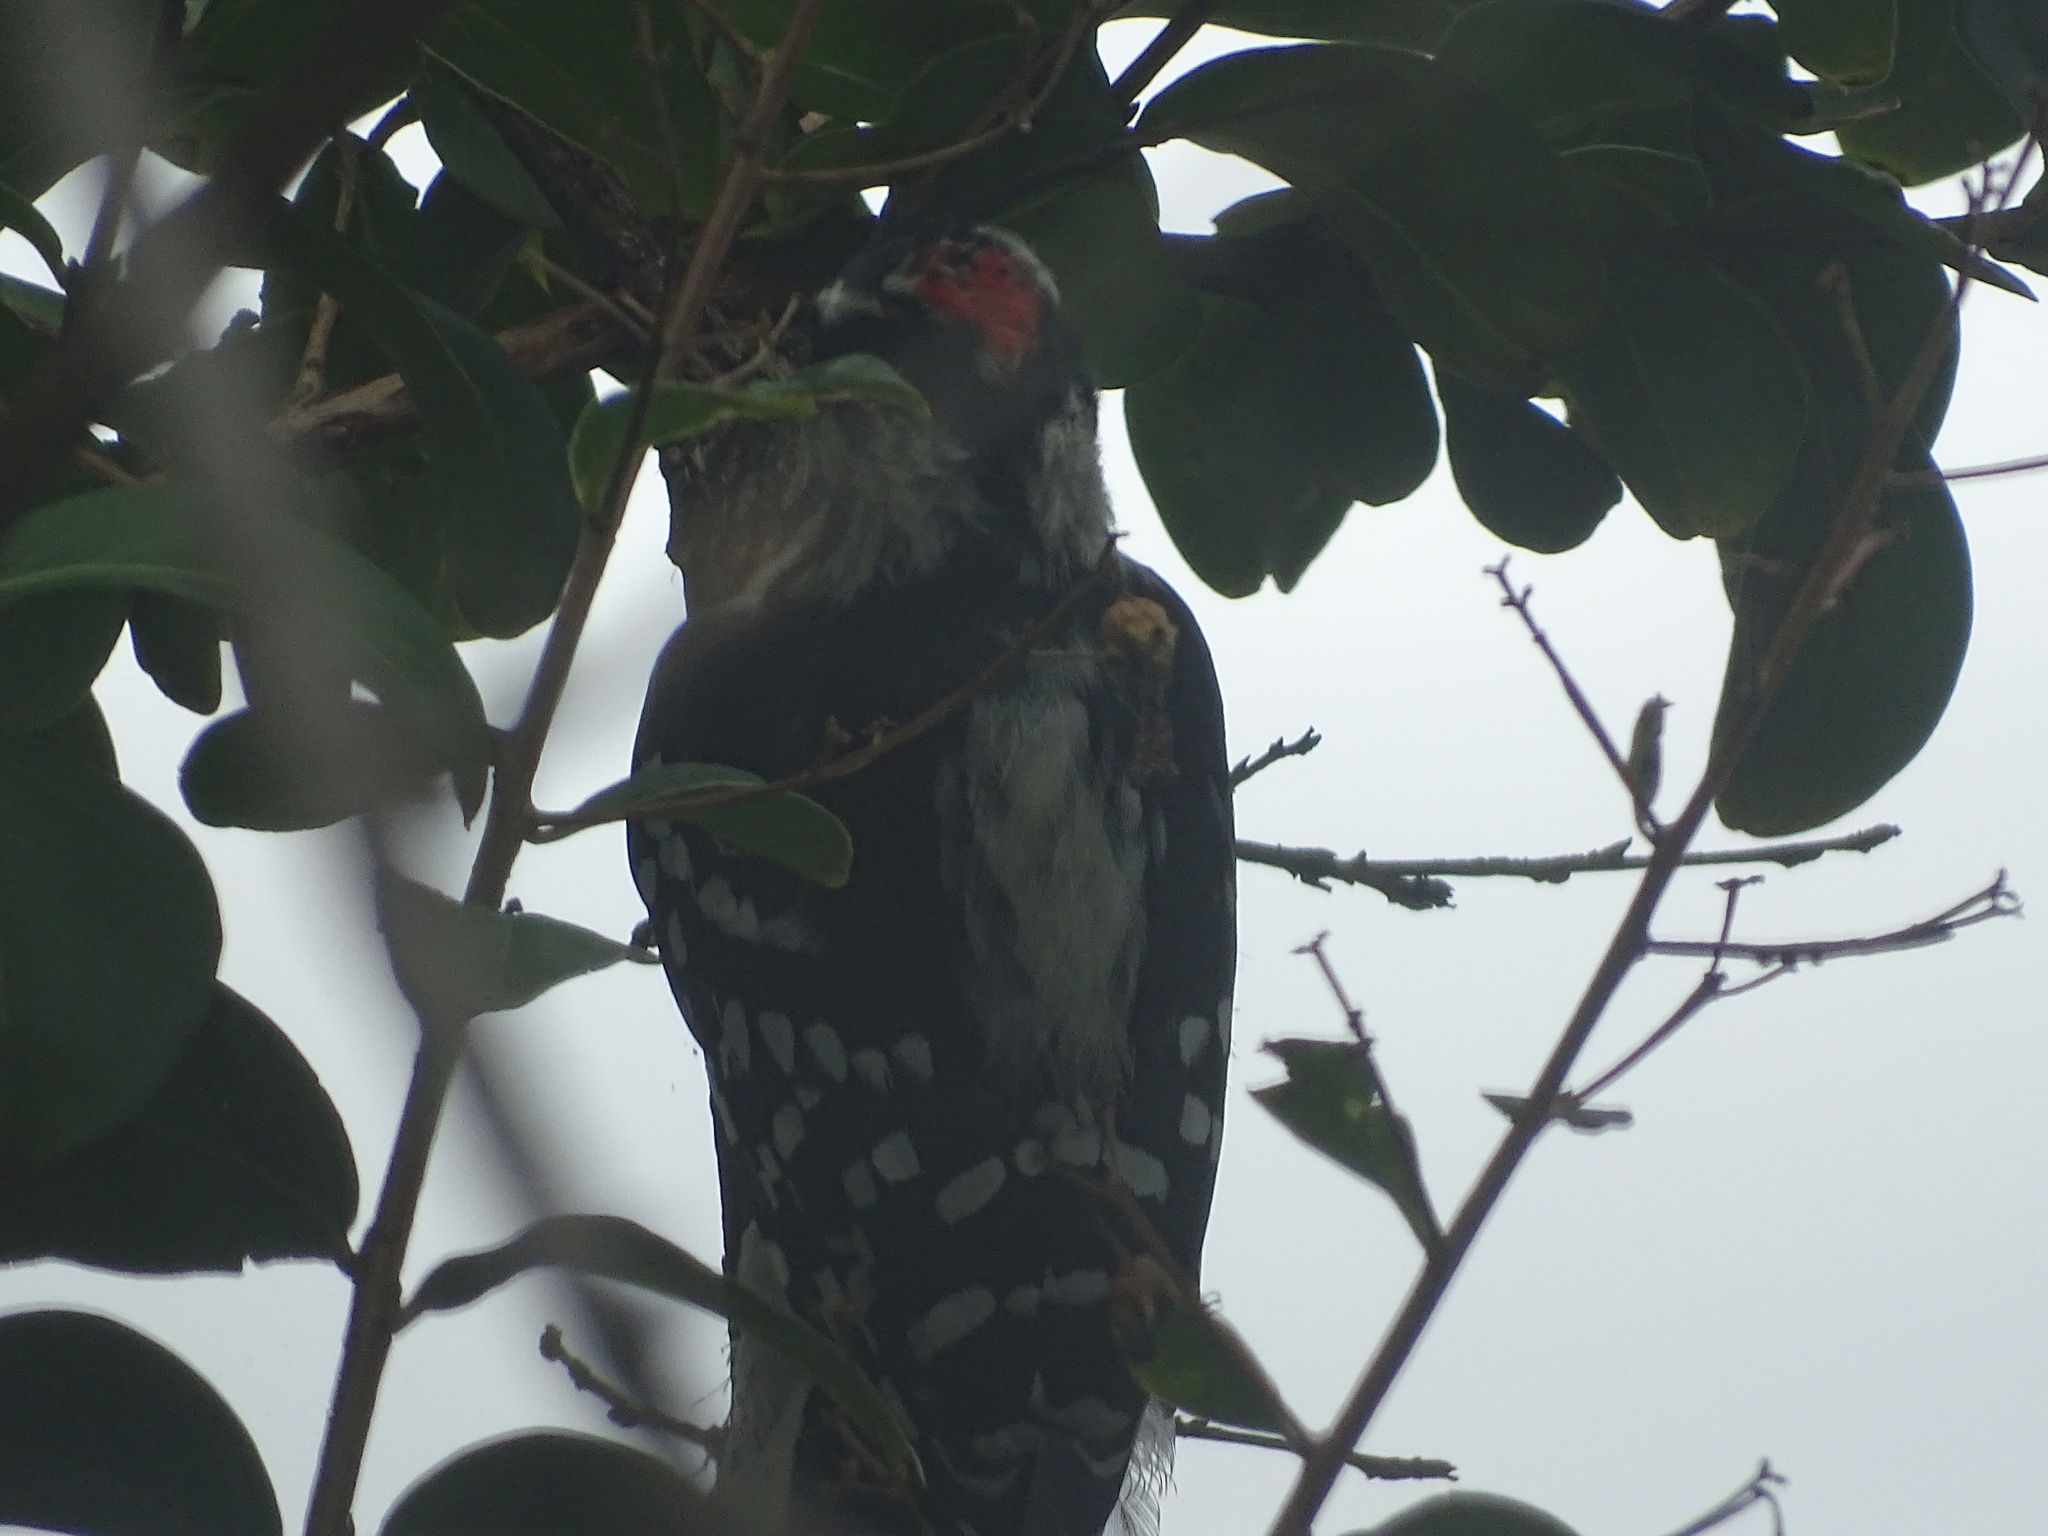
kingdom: Animalia
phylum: Chordata
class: Aves
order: Piciformes
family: Picidae
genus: Dryobates
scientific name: Dryobates pubescens
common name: Downy woodpecker
